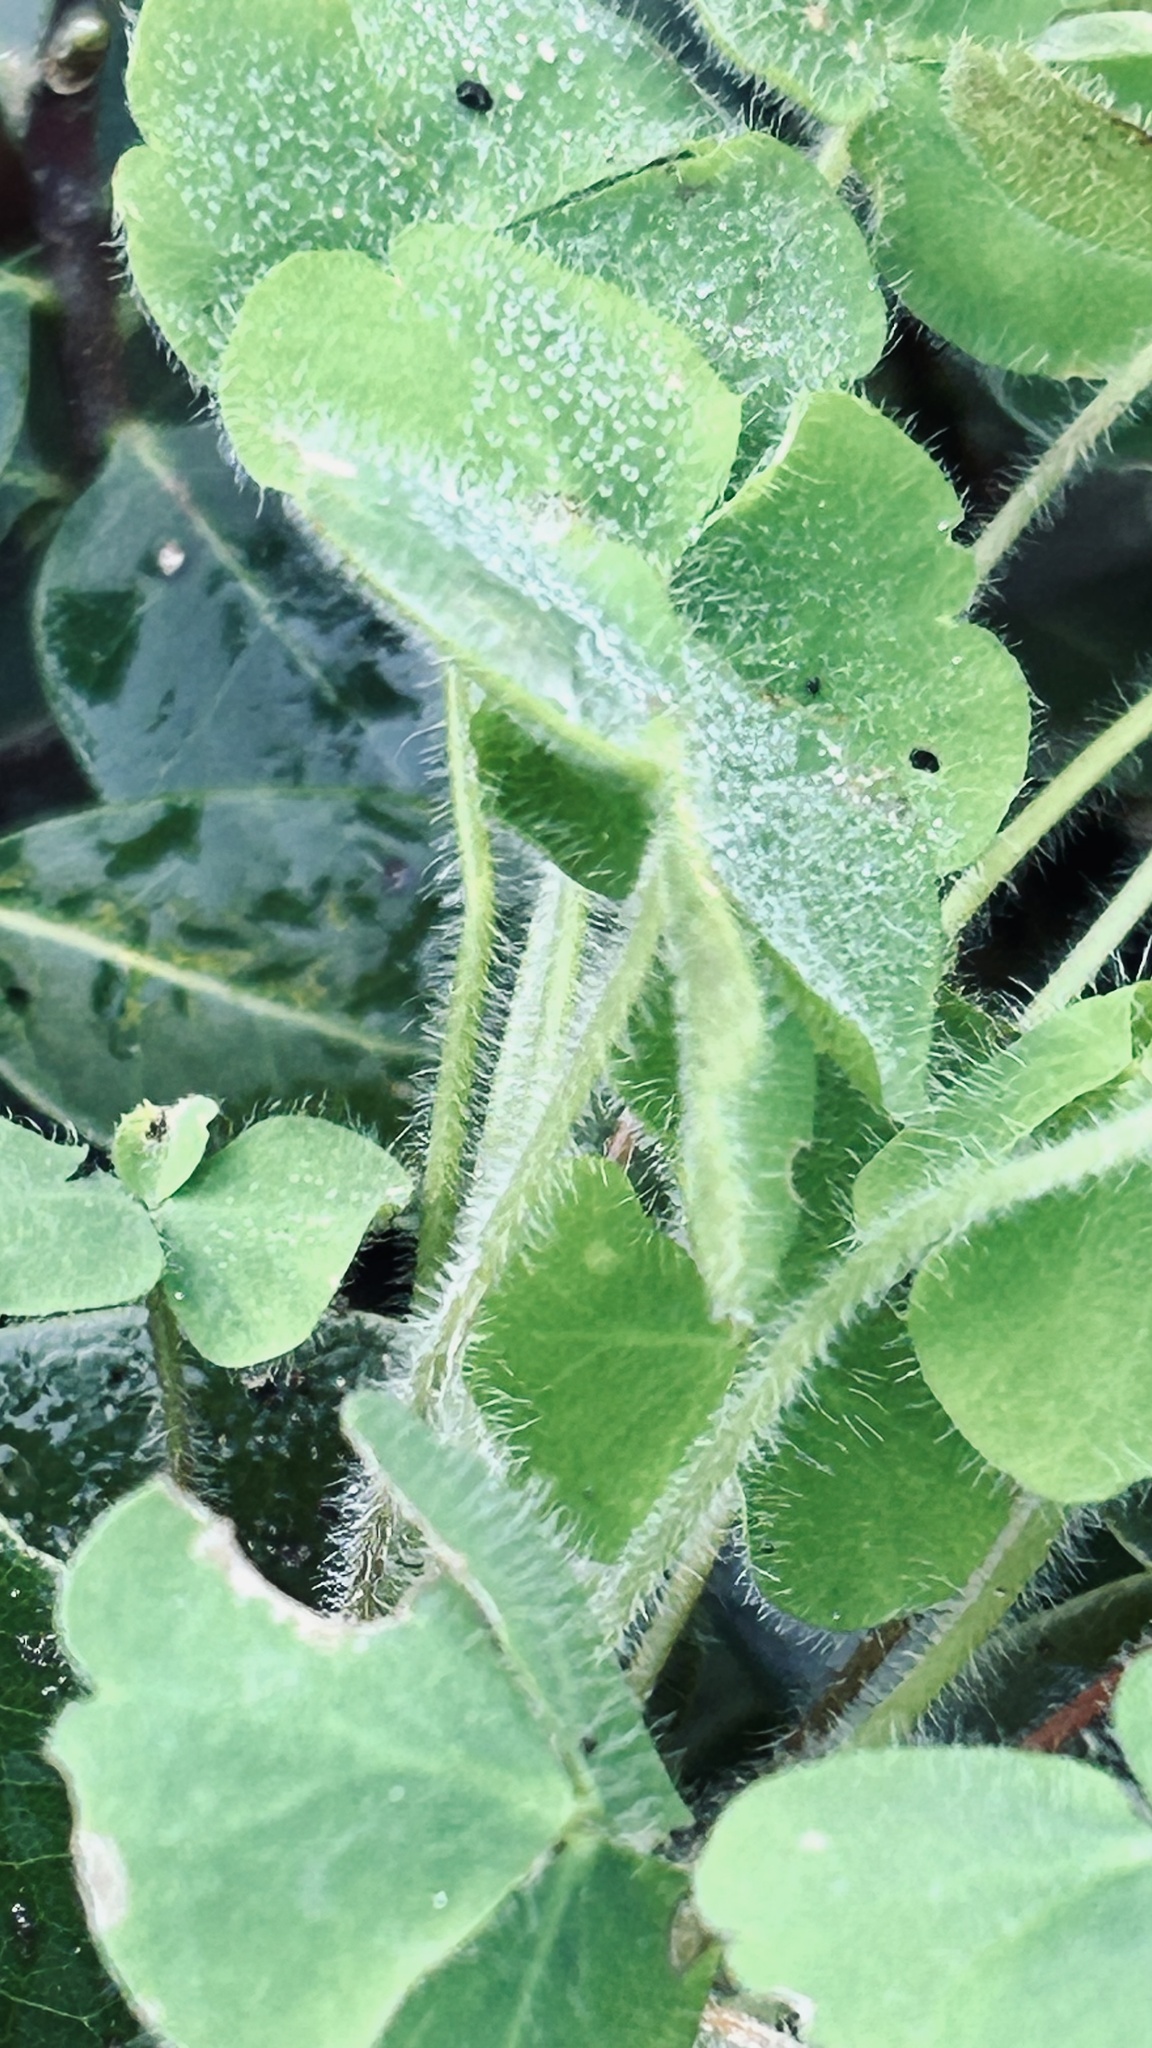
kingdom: Plantae
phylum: Tracheophyta
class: Magnoliopsida
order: Oxalidales
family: Oxalidaceae
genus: Oxalis
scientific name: Oxalis imbricata
